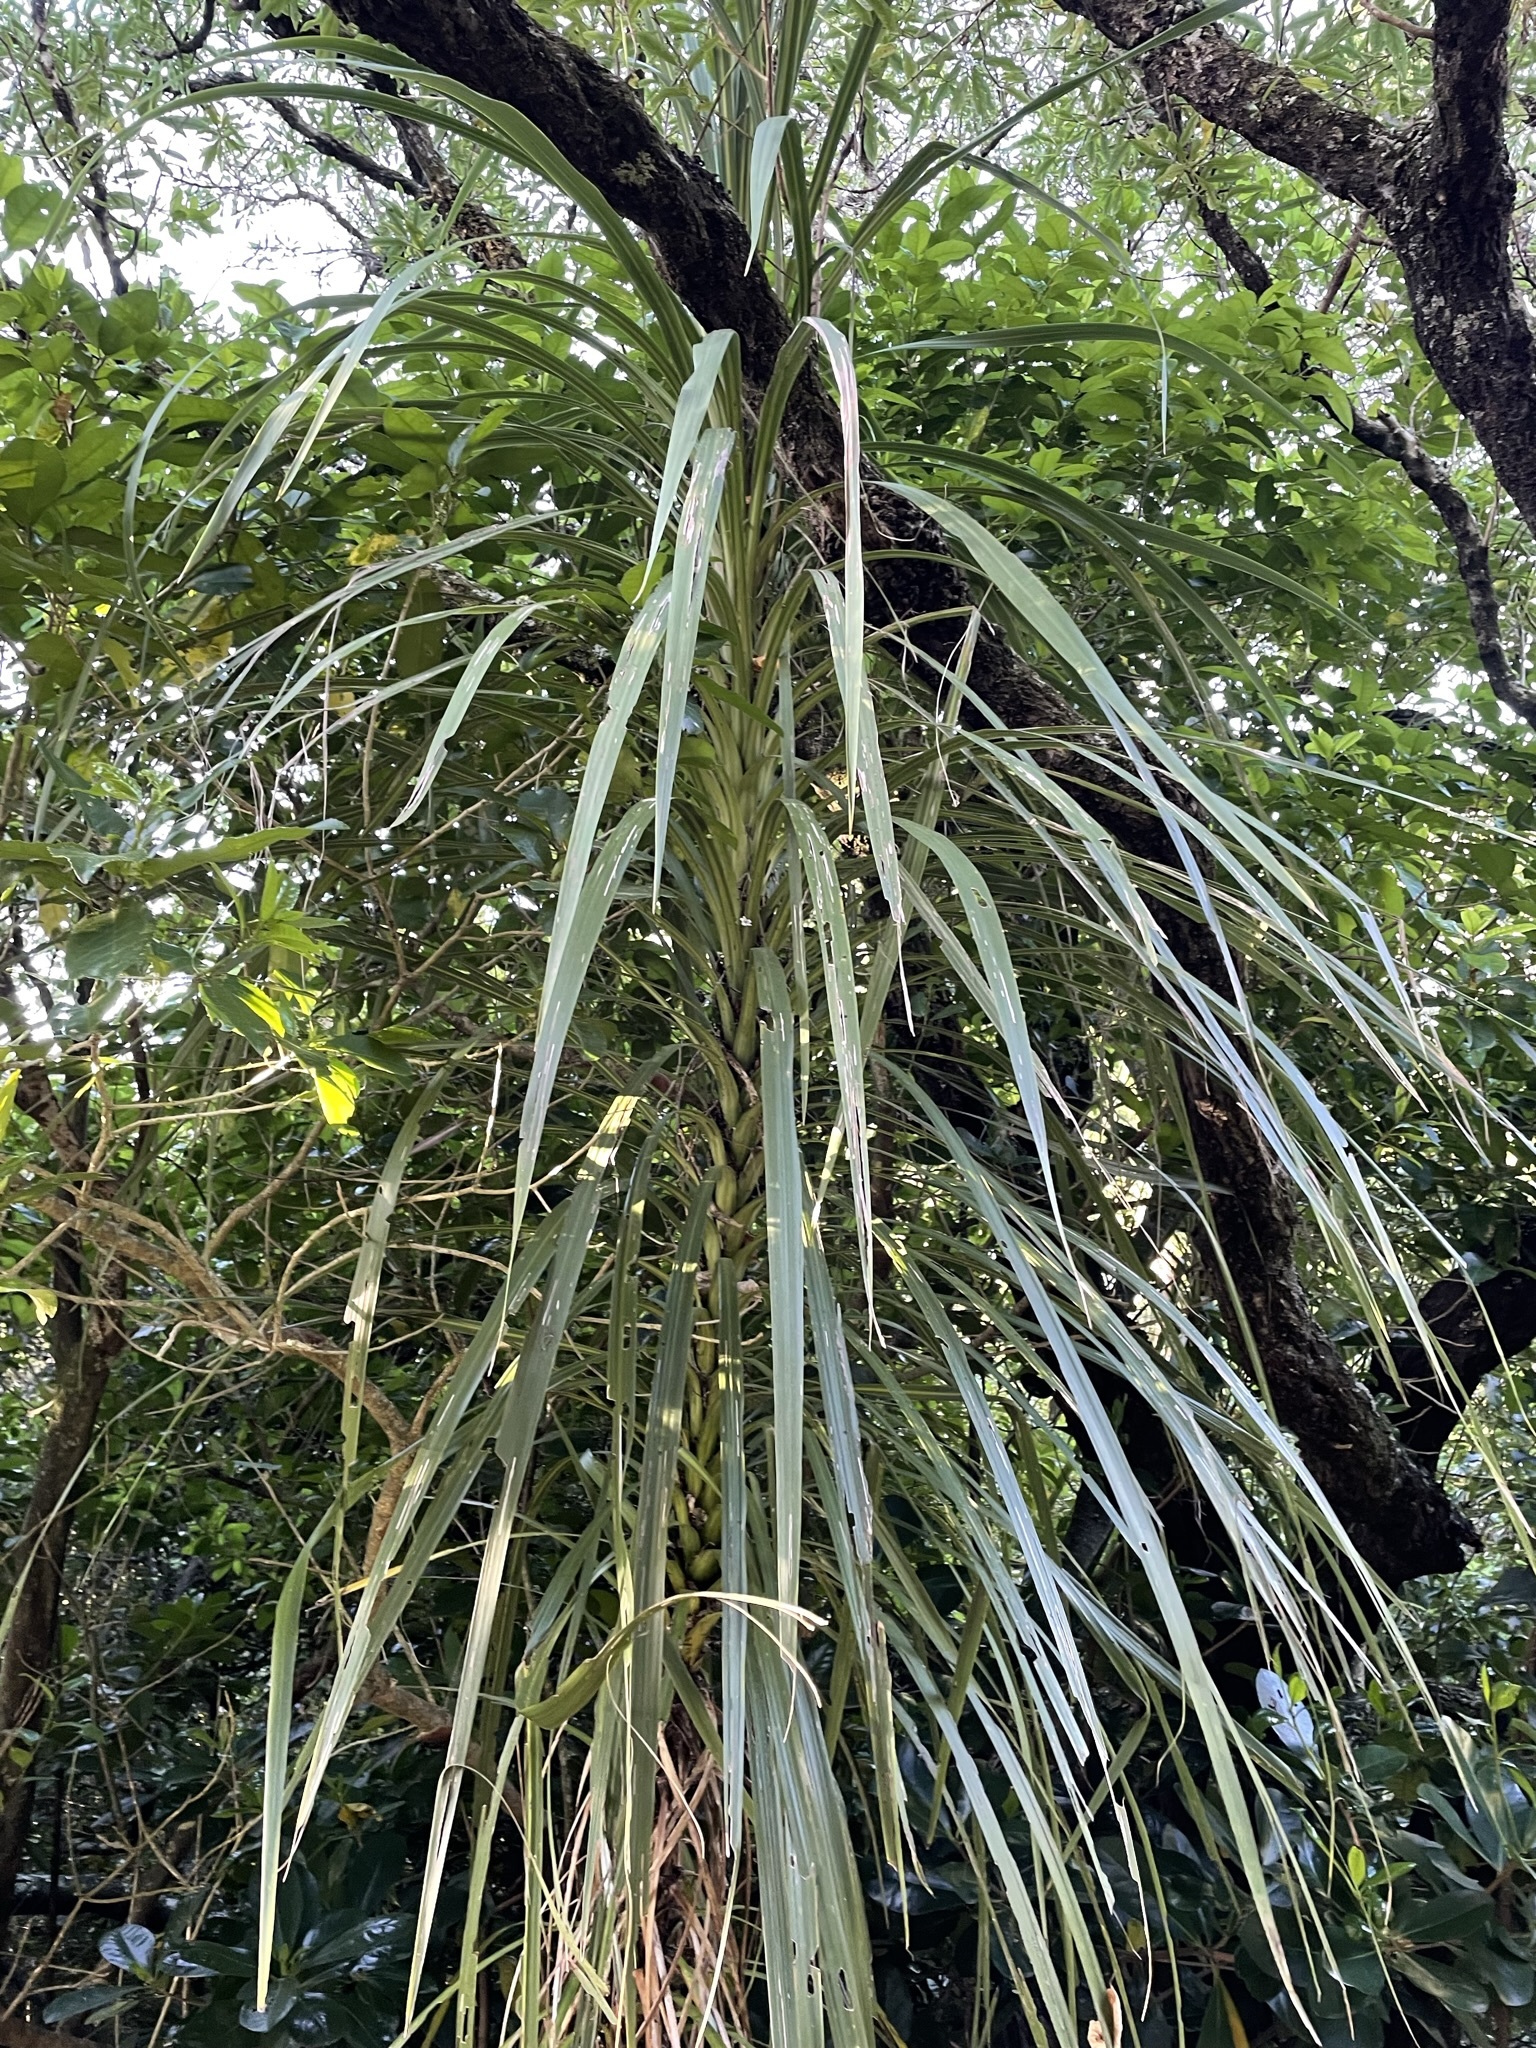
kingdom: Plantae
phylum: Tracheophyta
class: Liliopsida
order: Pandanales
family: Pandanaceae
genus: Freycinetia
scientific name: Freycinetia banksii
